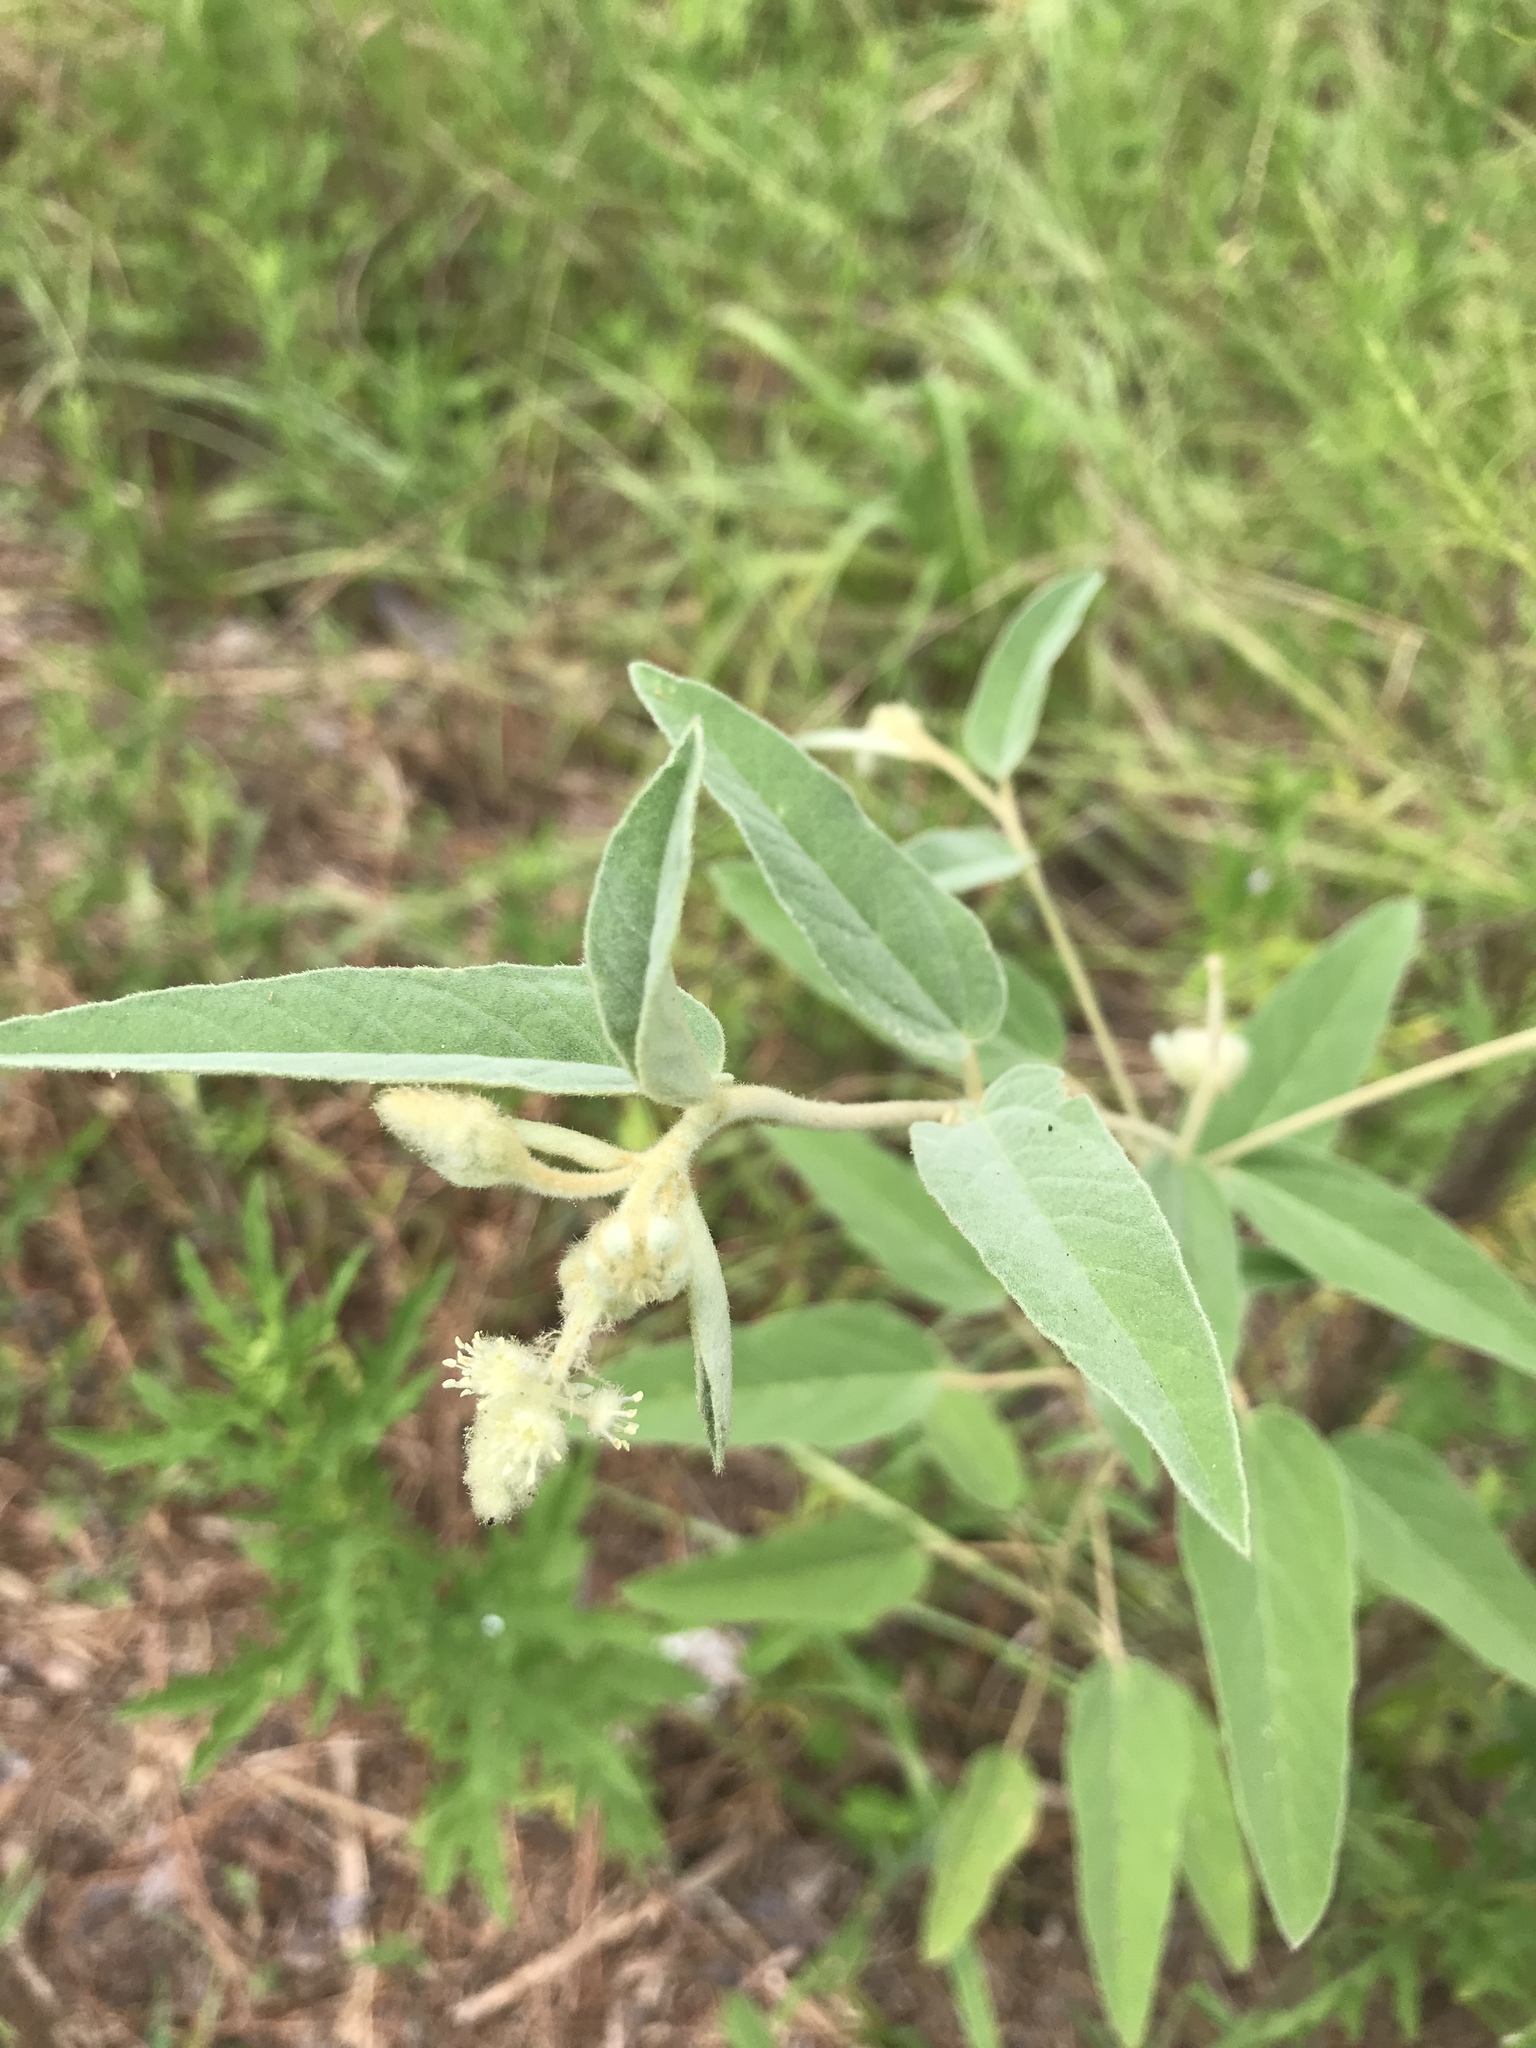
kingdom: Plantae
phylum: Tracheophyta
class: Magnoliopsida
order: Malpighiales
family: Euphorbiaceae
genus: Croton
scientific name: Croton lindheimeri
